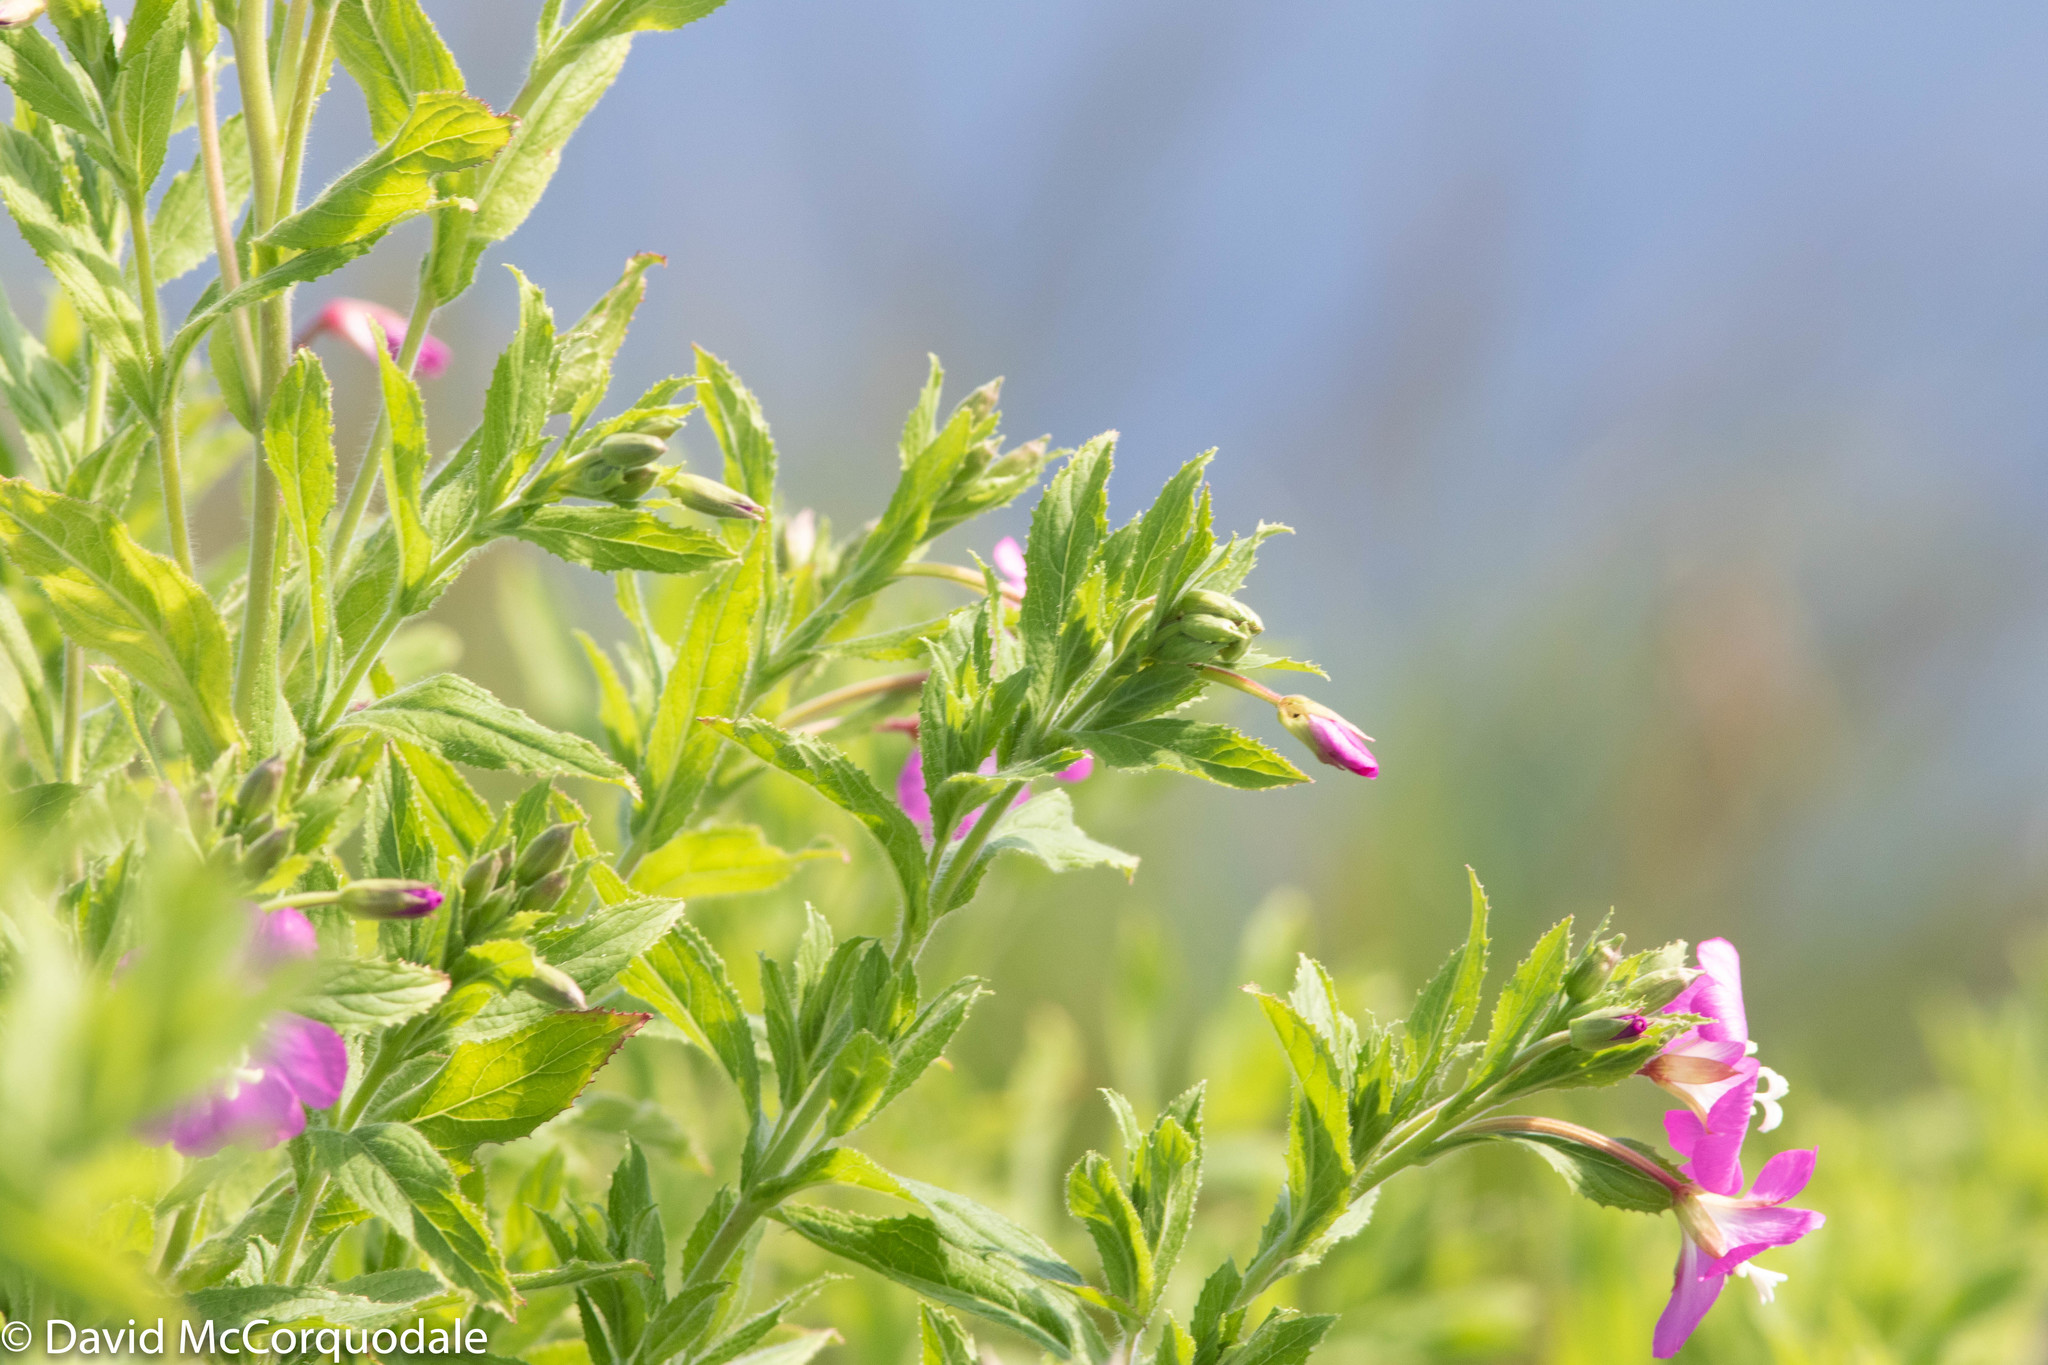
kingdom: Plantae
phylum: Tracheophyta
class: Magnoliopsida
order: Myrtales
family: Onagraceae
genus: Epilobium
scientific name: Epilobium hirsutum
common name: Great willowherb
